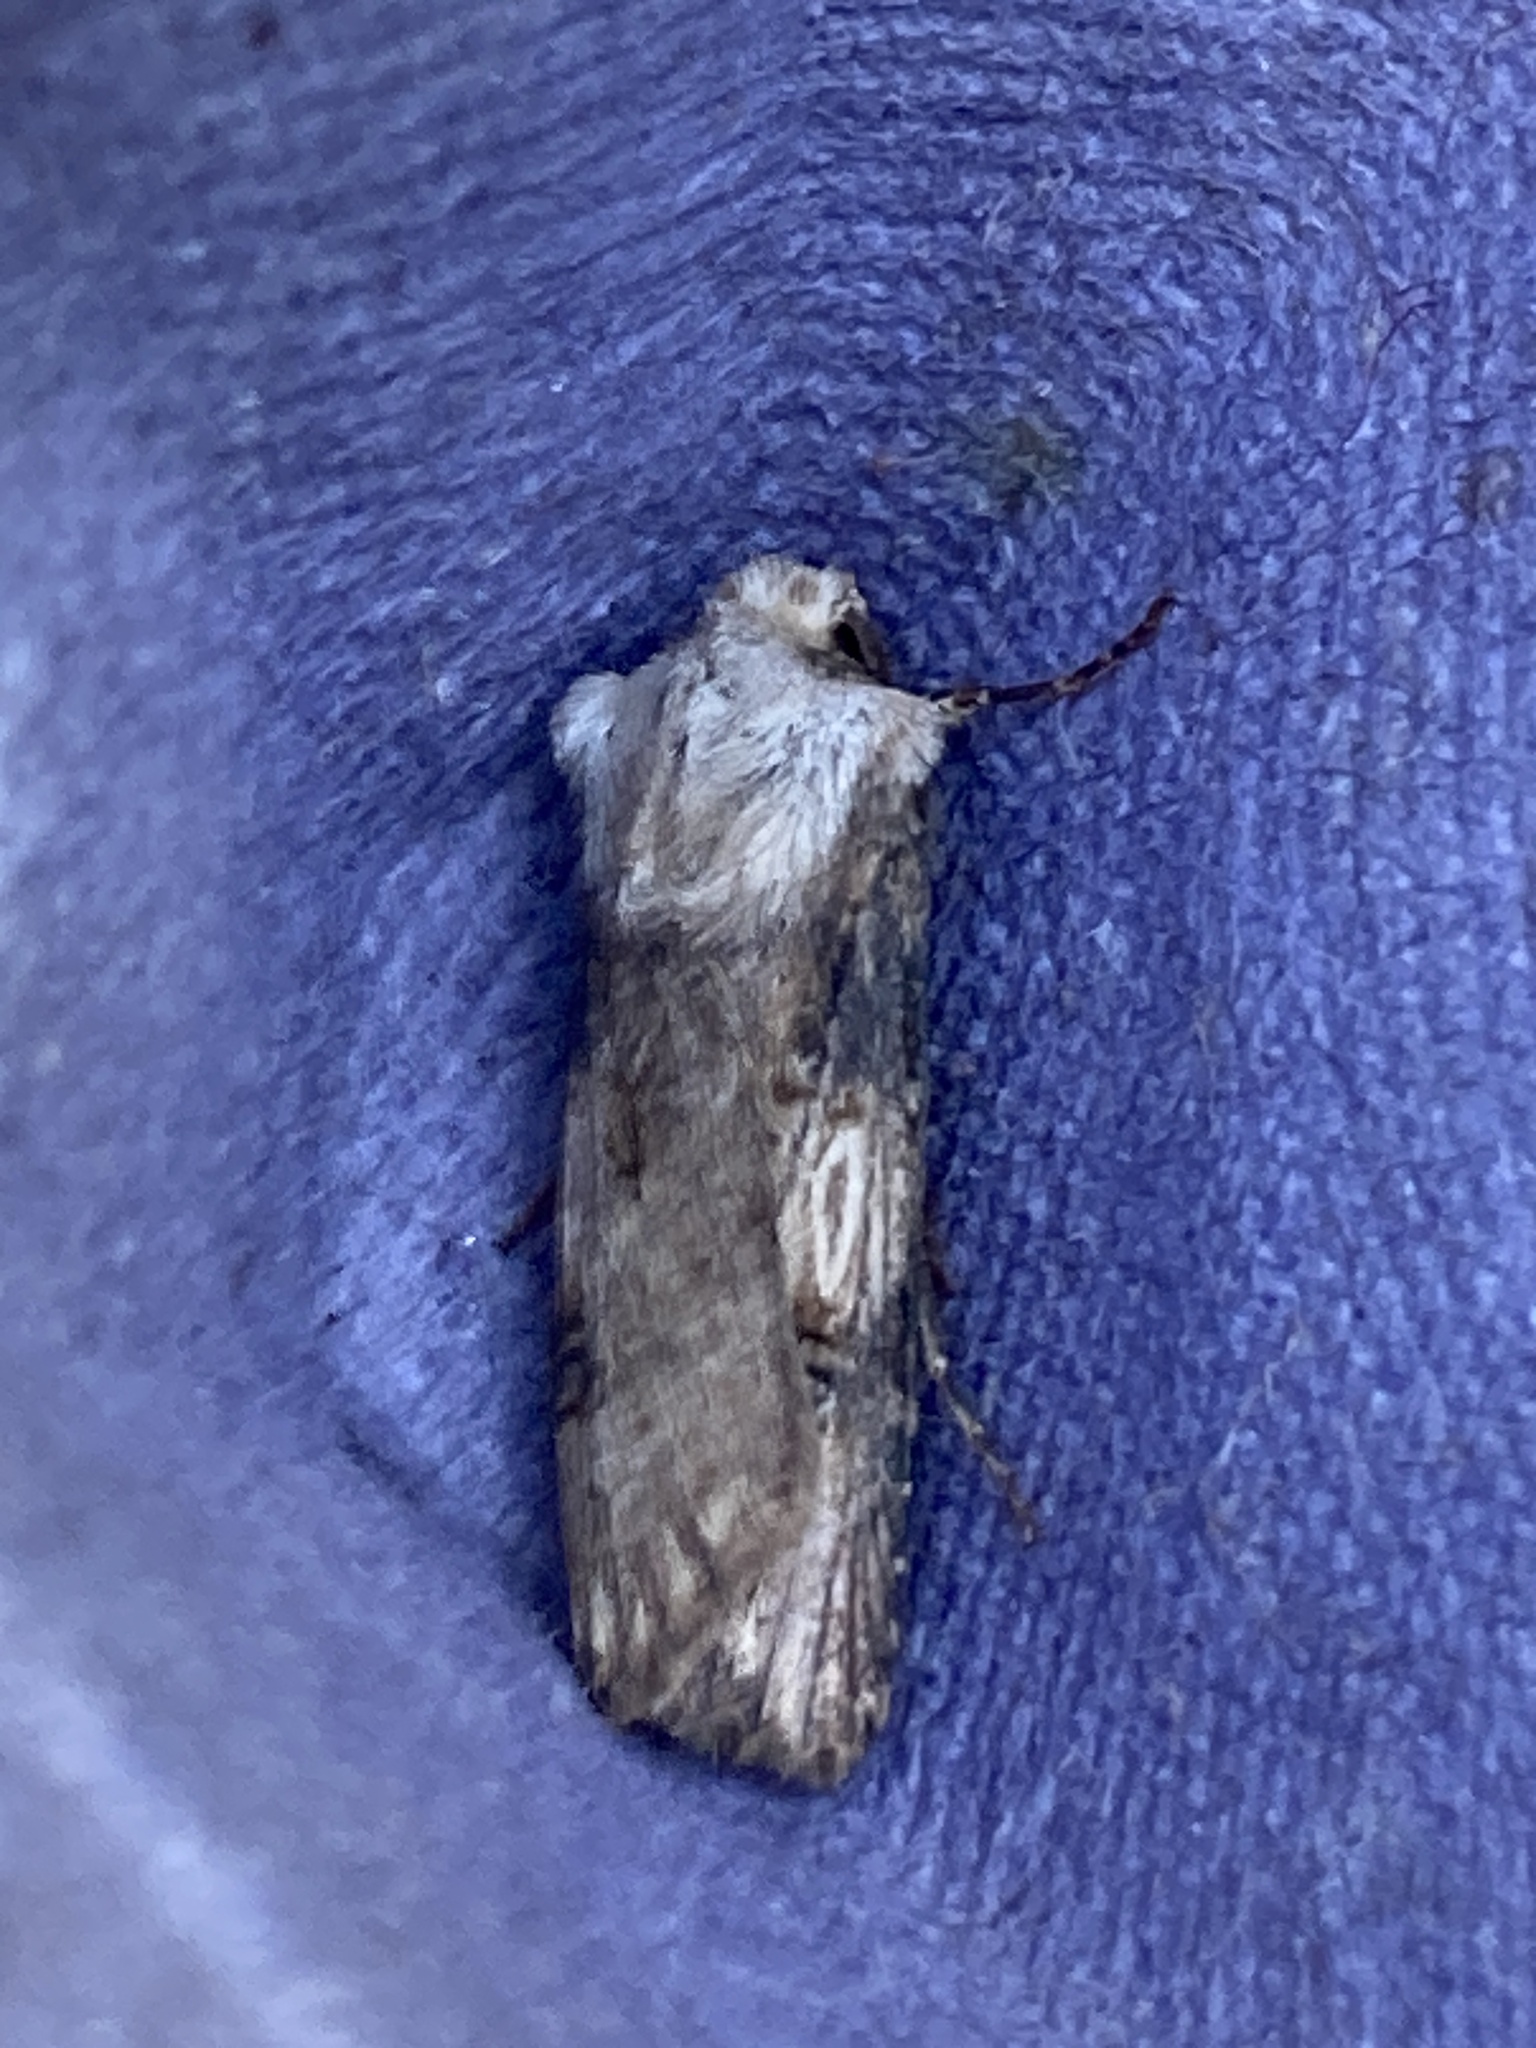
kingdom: Animalia
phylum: Arthropoda
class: Insecta
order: Lepidoptera
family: Noctuidae
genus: Agrotis
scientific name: Agrotis puta
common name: Shuttle-shaped dart
